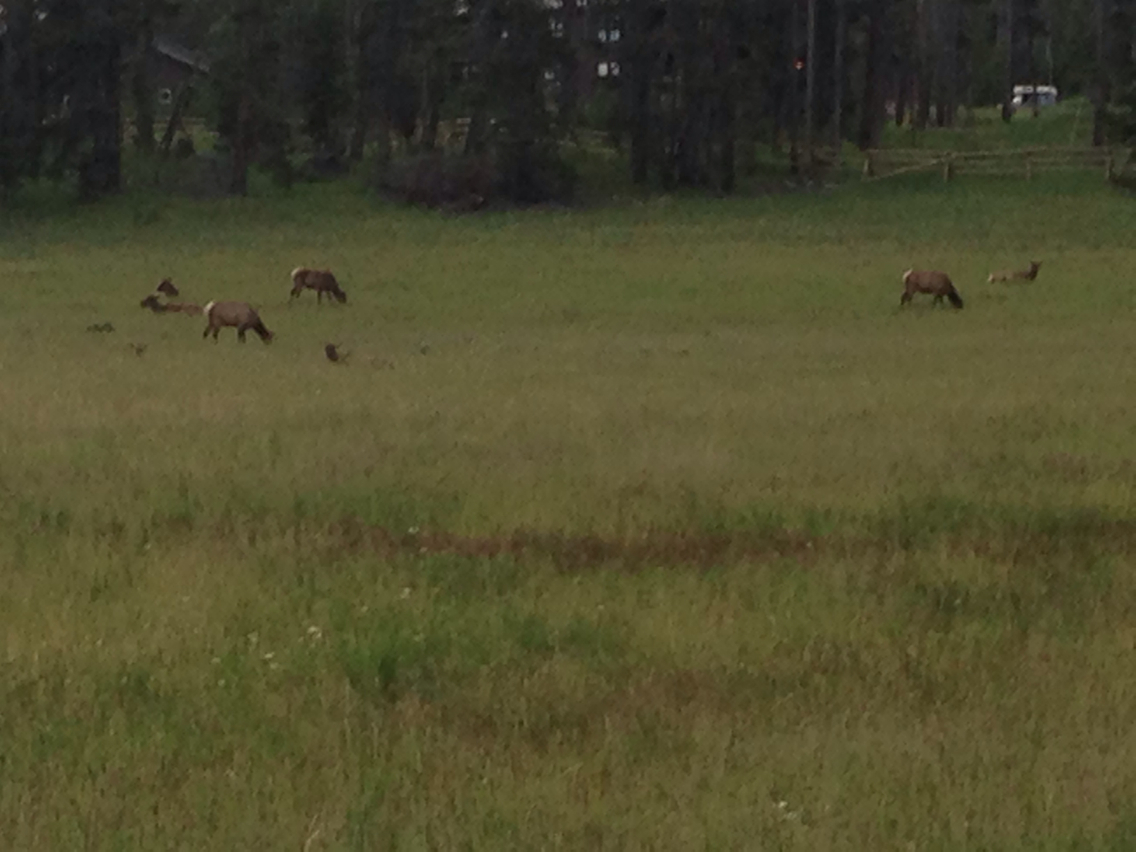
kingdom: Animalia
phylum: Chordata
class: Mammalia
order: Artiodactyla
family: Cervidae
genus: Cervus
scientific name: Cervus elaphus
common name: Red deer
